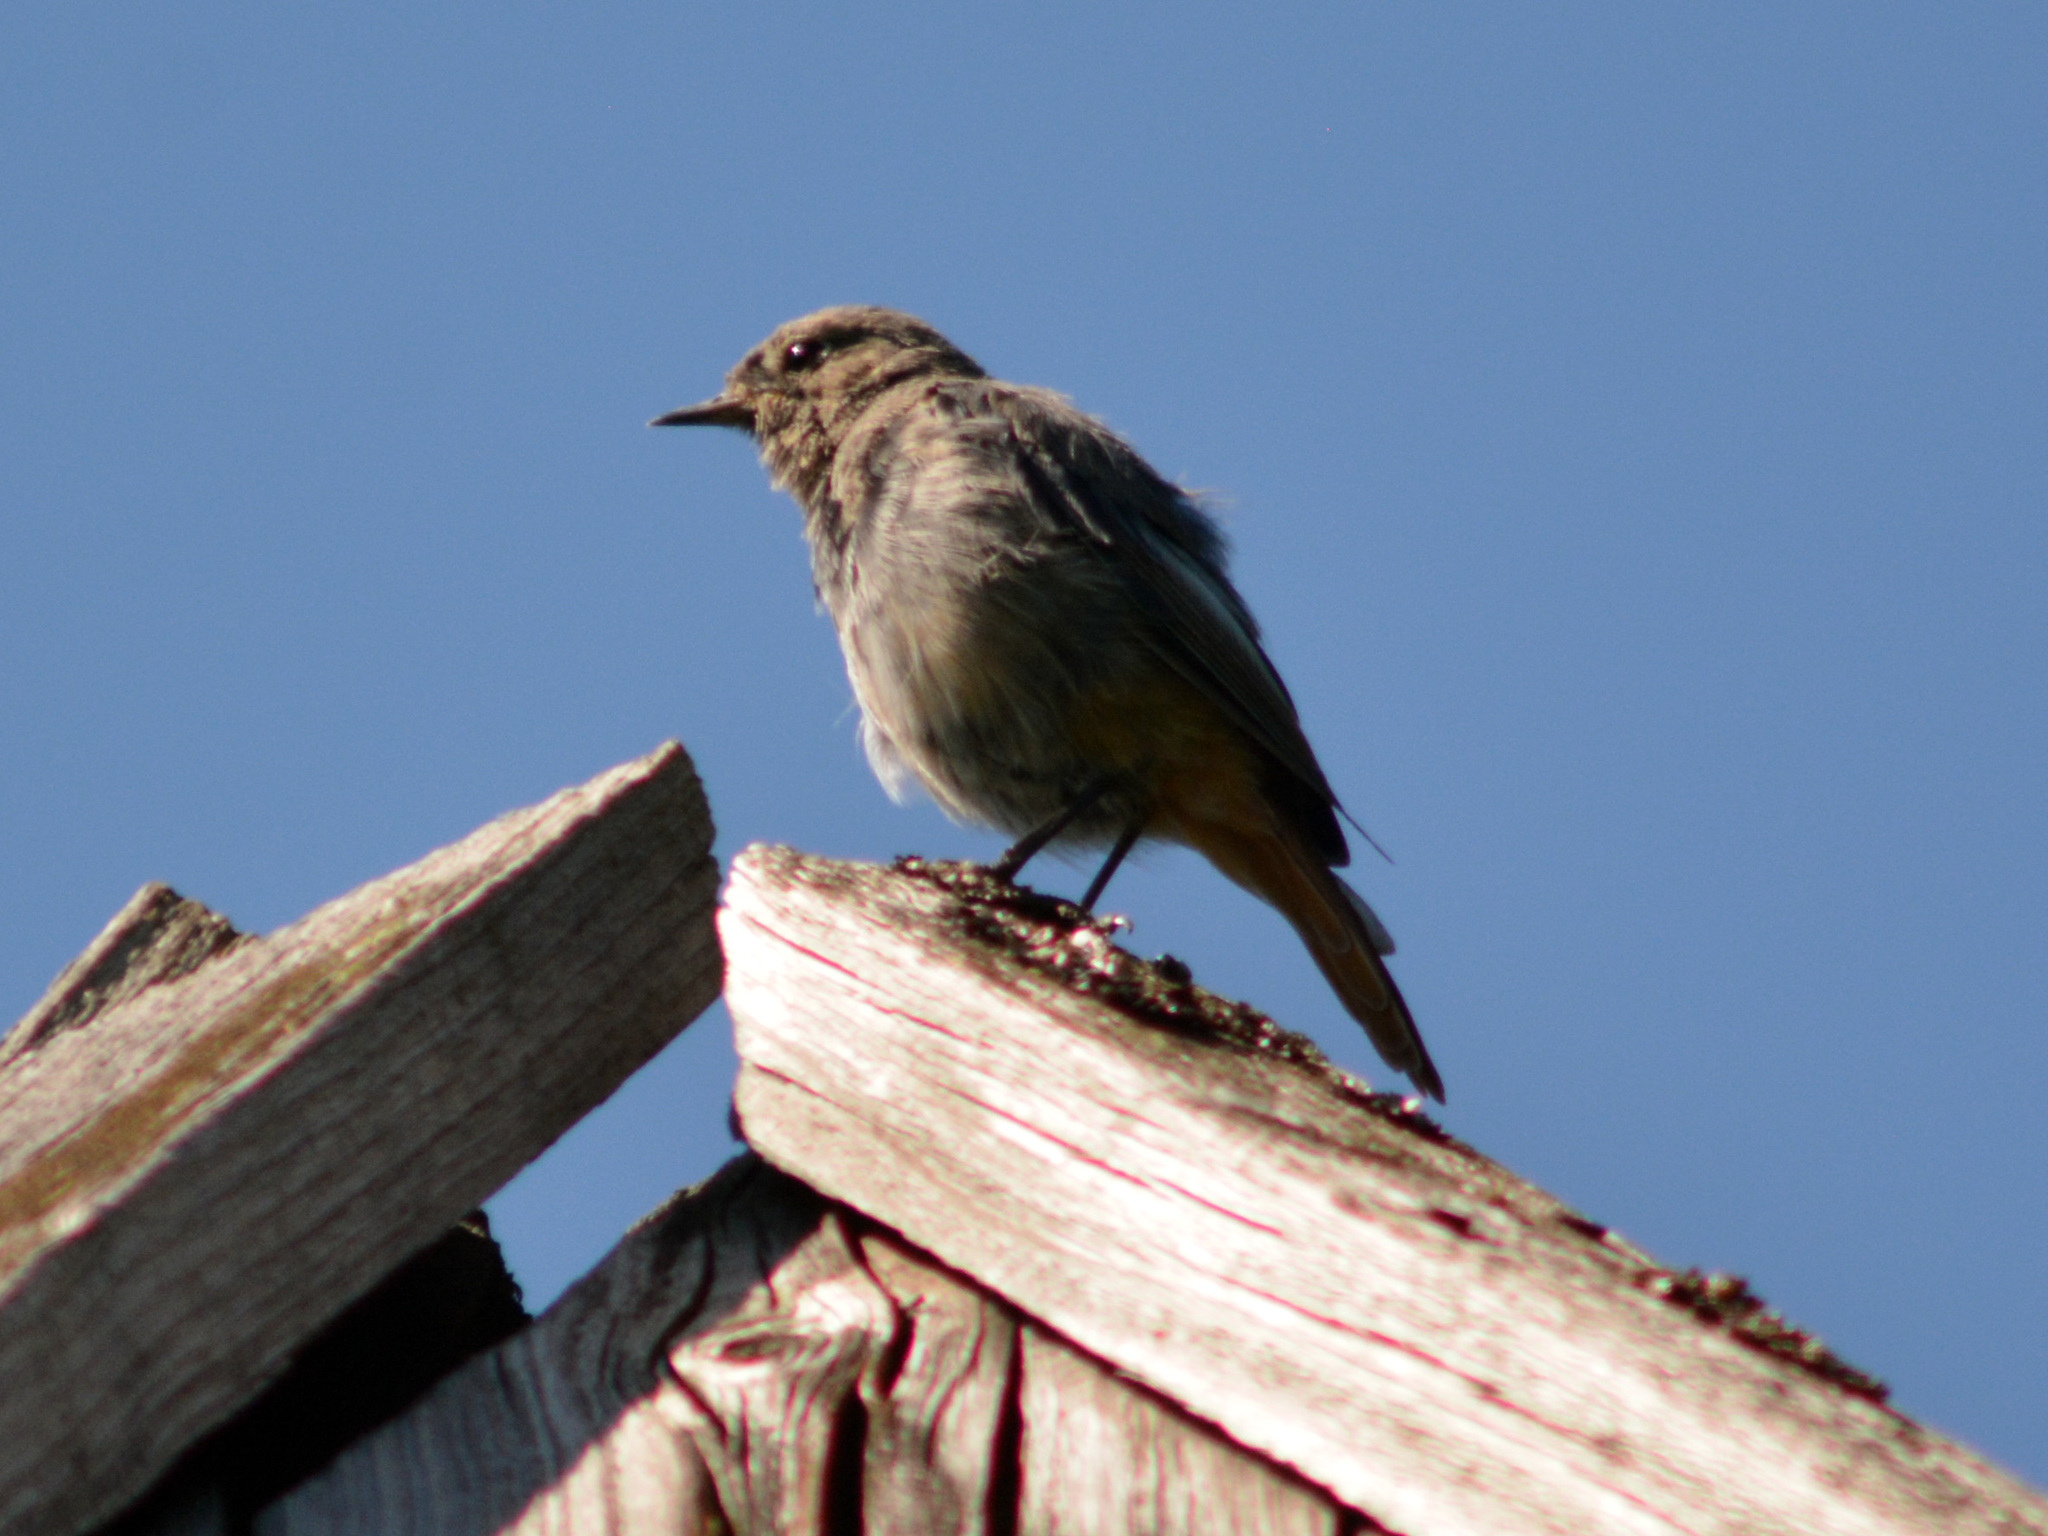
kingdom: Animalia
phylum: Chordata
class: Aves
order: Passeriformes
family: Muscicapidae
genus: Phoenicurus
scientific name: Phoenicurus ochruros
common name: Black redstart
